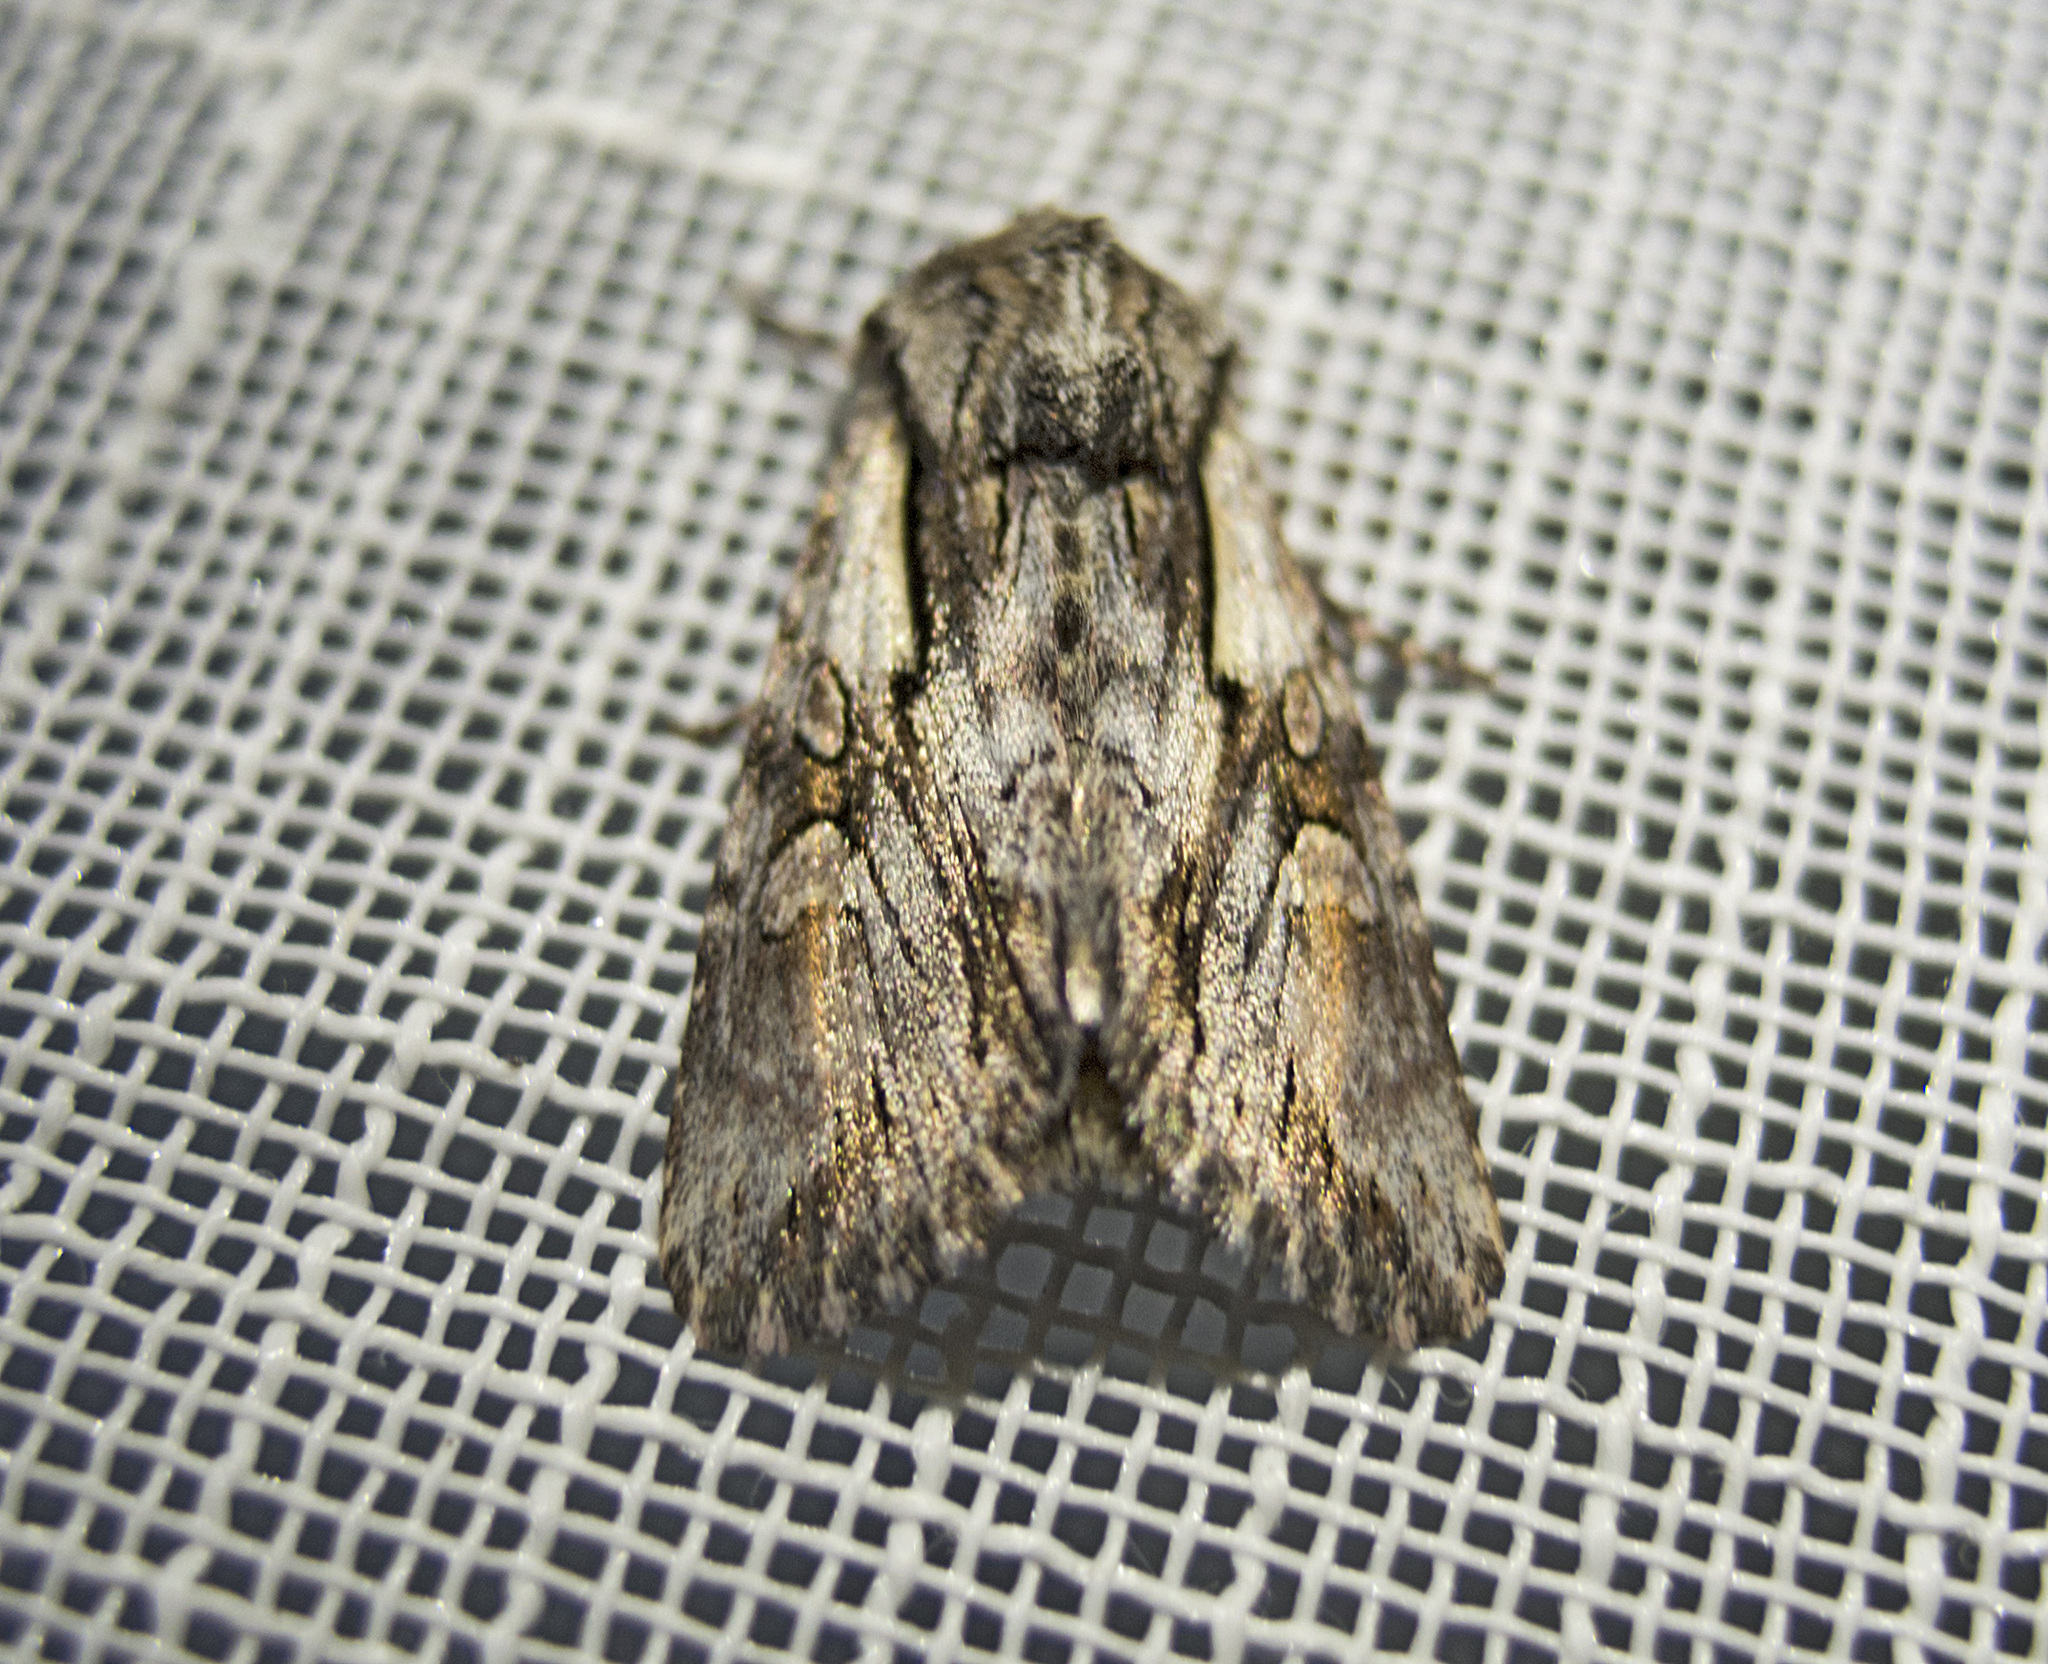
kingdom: Animalia
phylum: Arthropoda
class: Insecta
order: Lepidoptera
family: Noctuidae
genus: Chloantha
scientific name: Chloantha hyperici
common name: Pale-shouldered cloud
